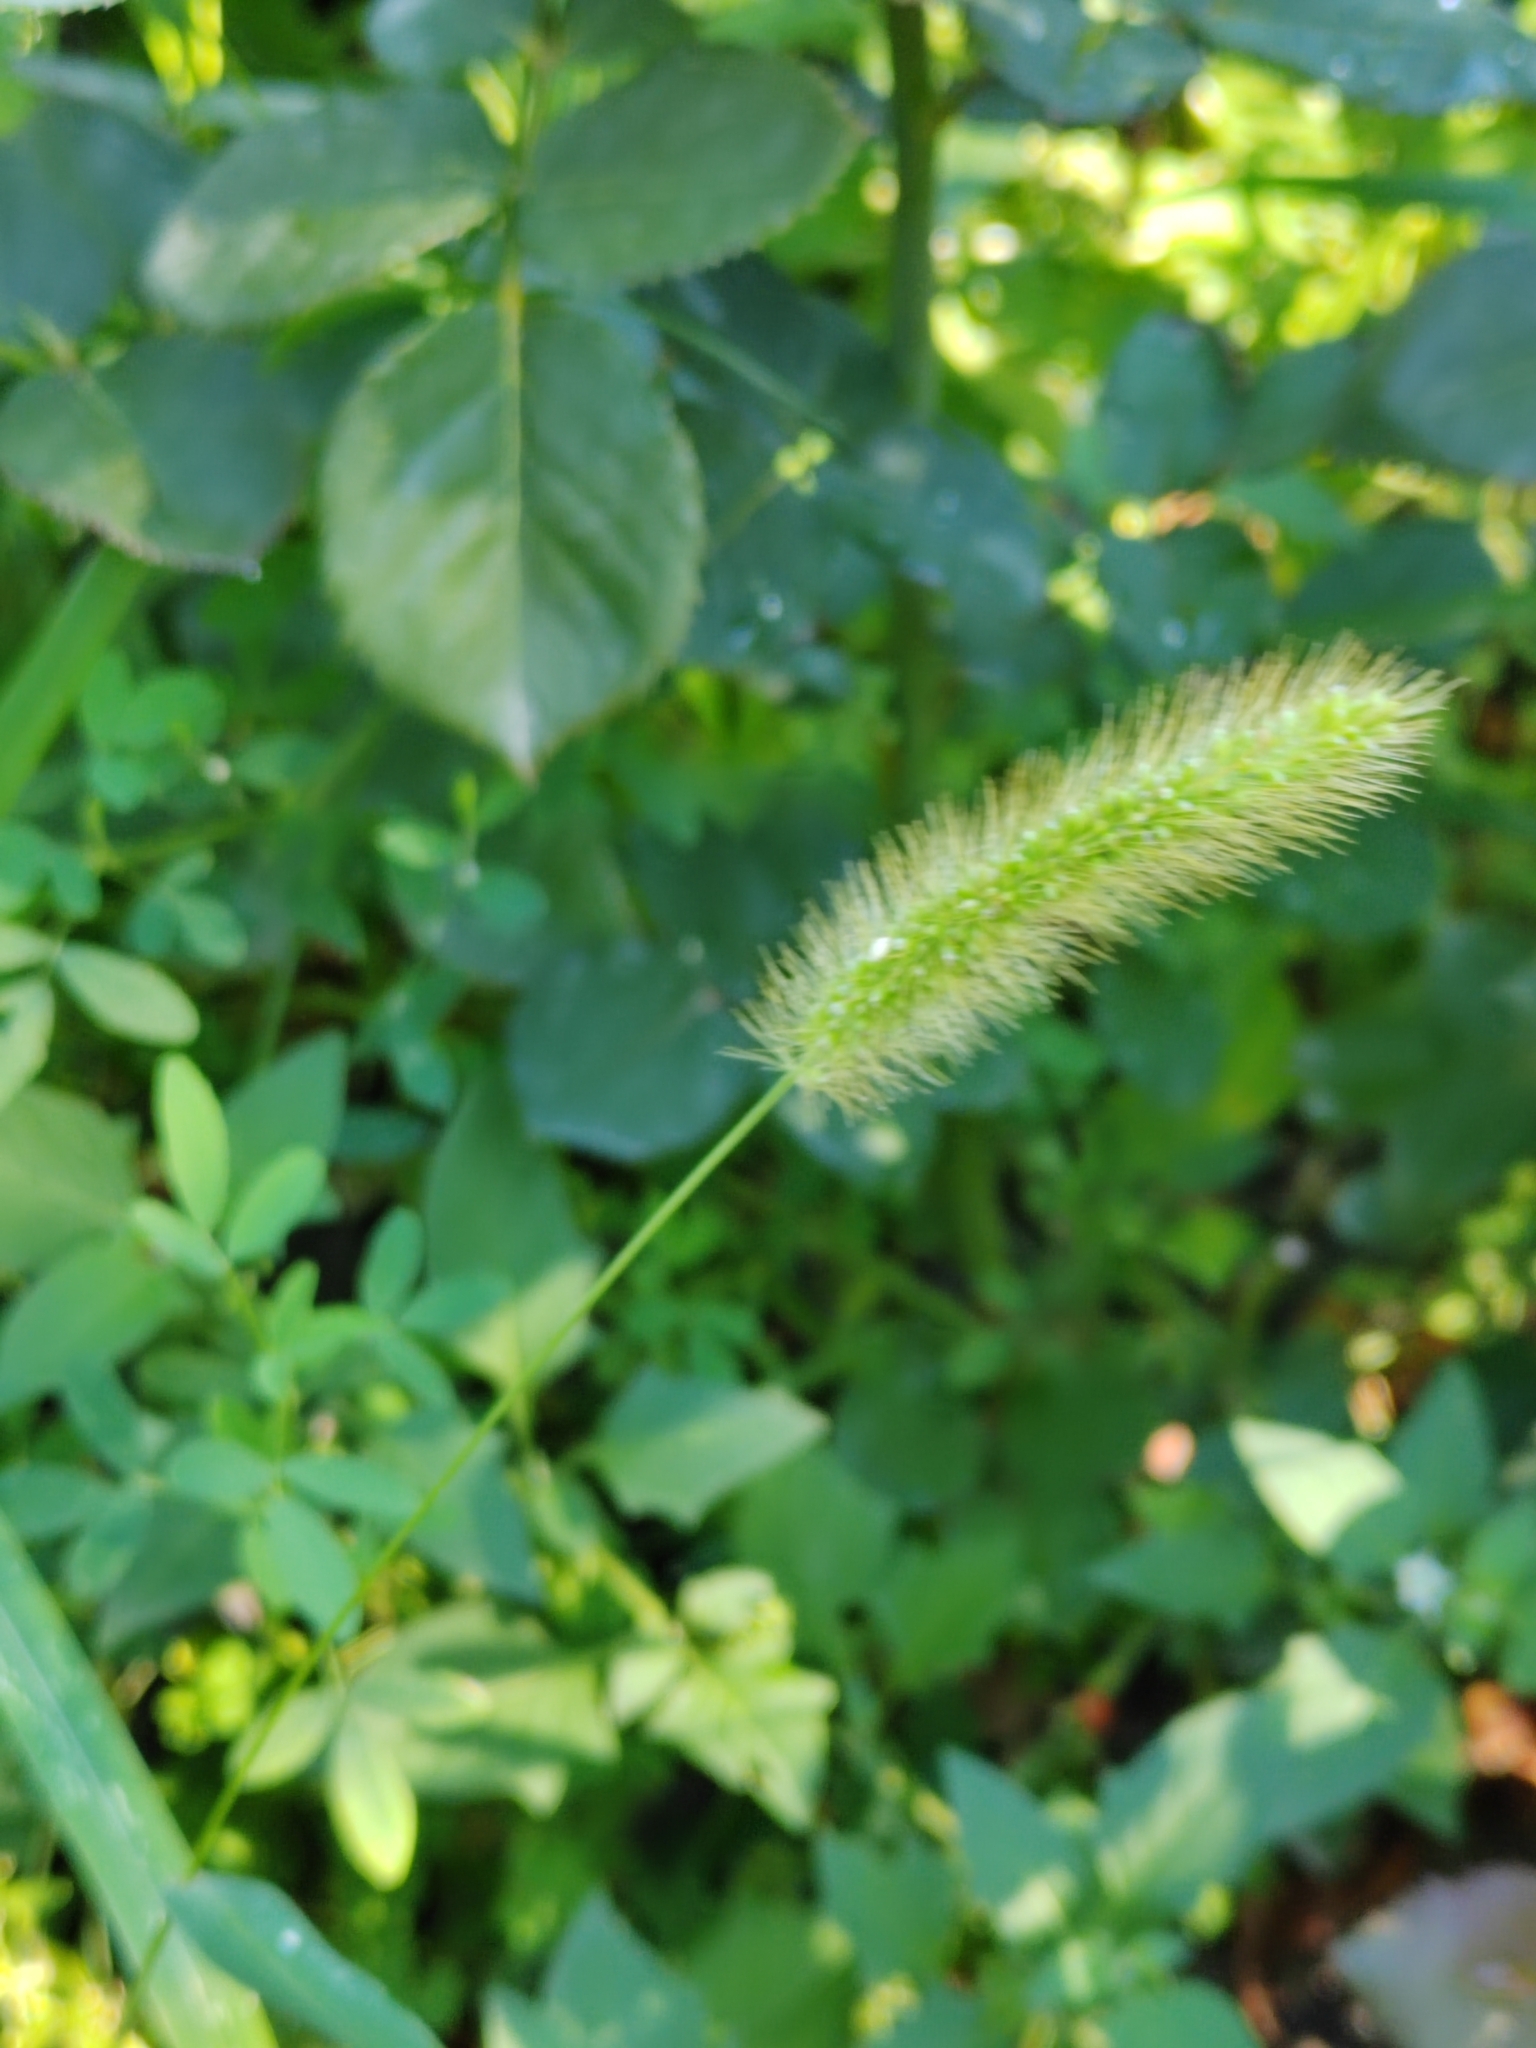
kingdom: Plantae
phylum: Tracheophyta
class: Liliopsida
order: Poales
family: Poaceae
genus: Setaria
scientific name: Setaria viridis
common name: Green bristlegrass
